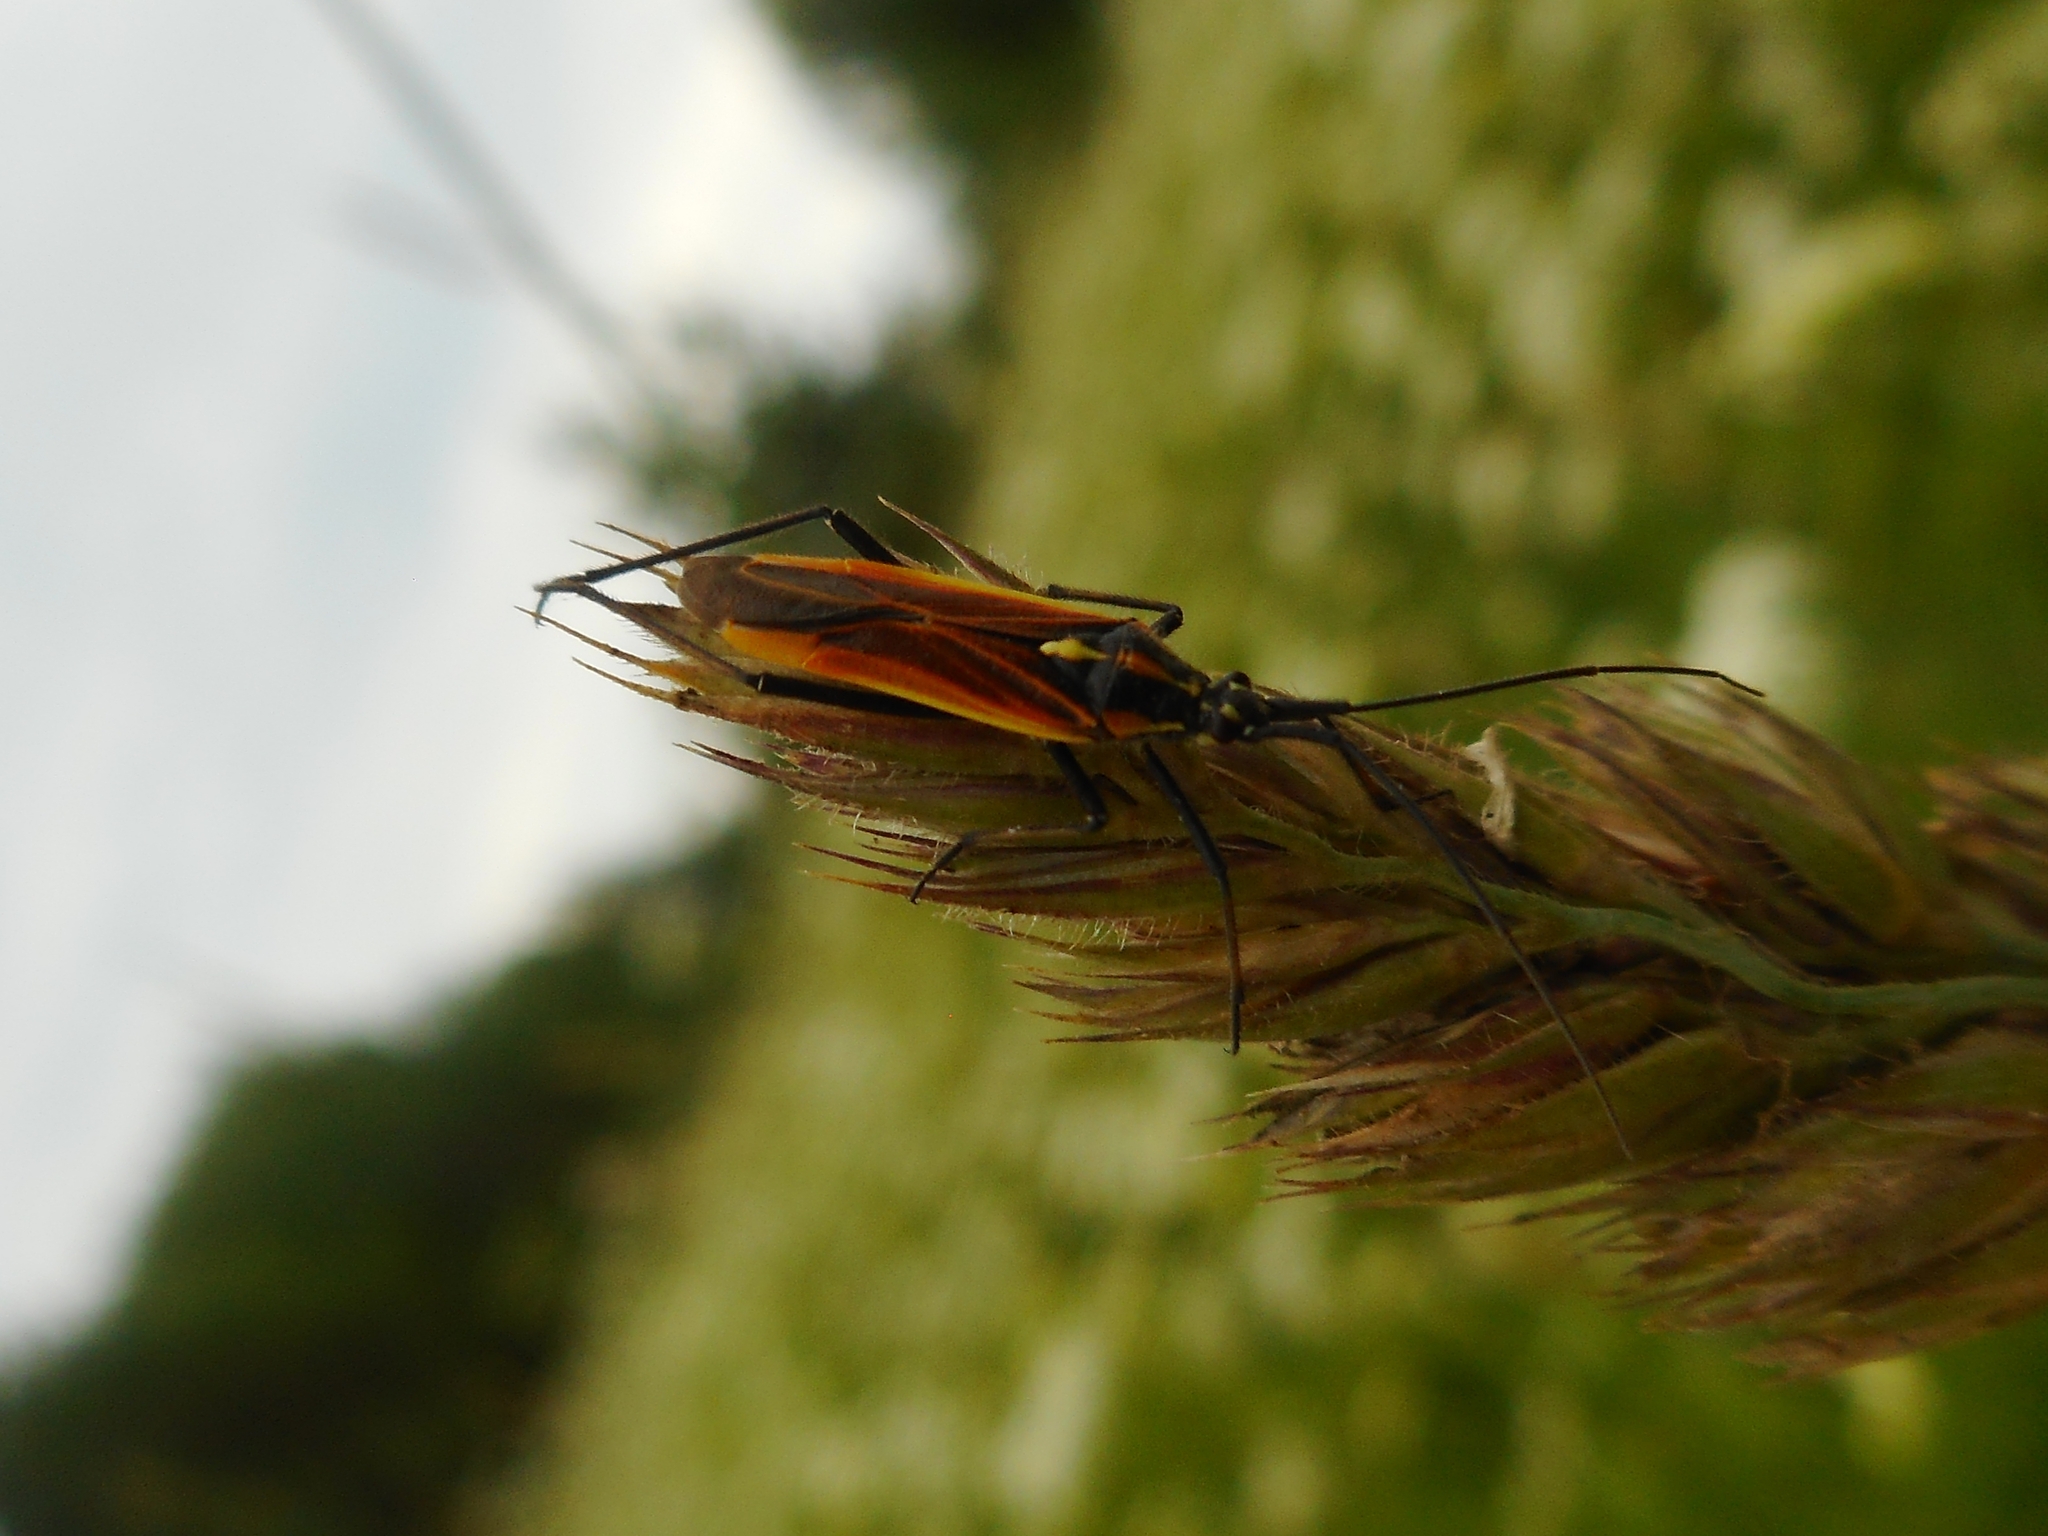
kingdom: Animalia
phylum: Arthropoda
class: Insecta
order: Hemiptera
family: Miridae
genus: Leptopterna
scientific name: Leptopterna dolabrata
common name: Meadow plant bug
